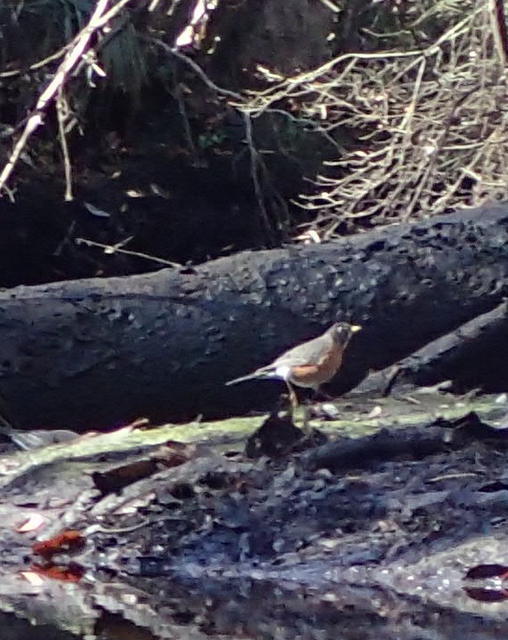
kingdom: Animalia
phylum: Chordata
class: Aves
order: Passeriformes
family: Turdidae
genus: Turdus
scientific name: Turdus migratorius
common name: American robin
